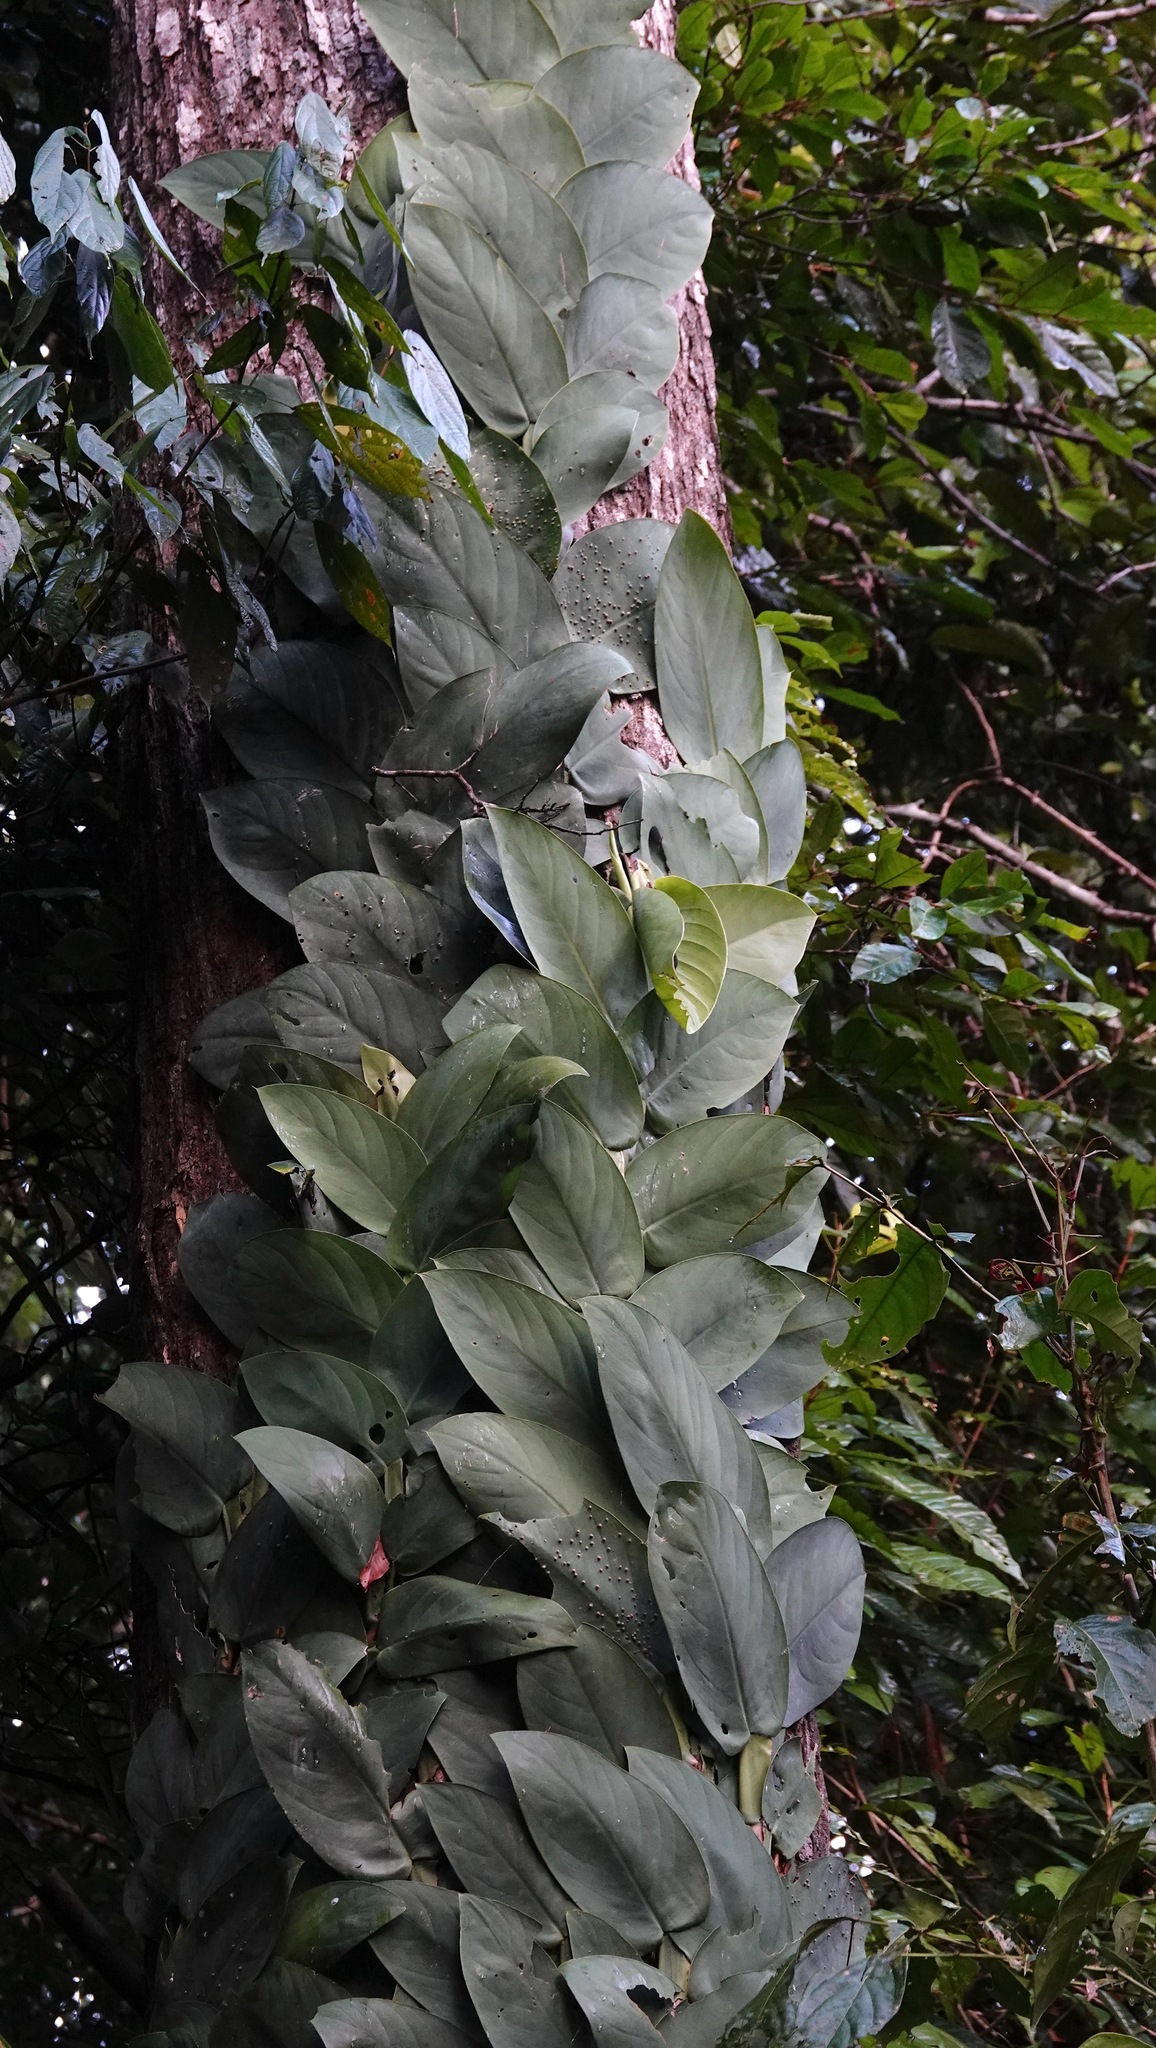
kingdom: Plantae
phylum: Tracheophyta
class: Liliopsida
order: Alismatales
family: Araceae
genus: Rhaphidophora
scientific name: Rhaphidophora korthalsii
